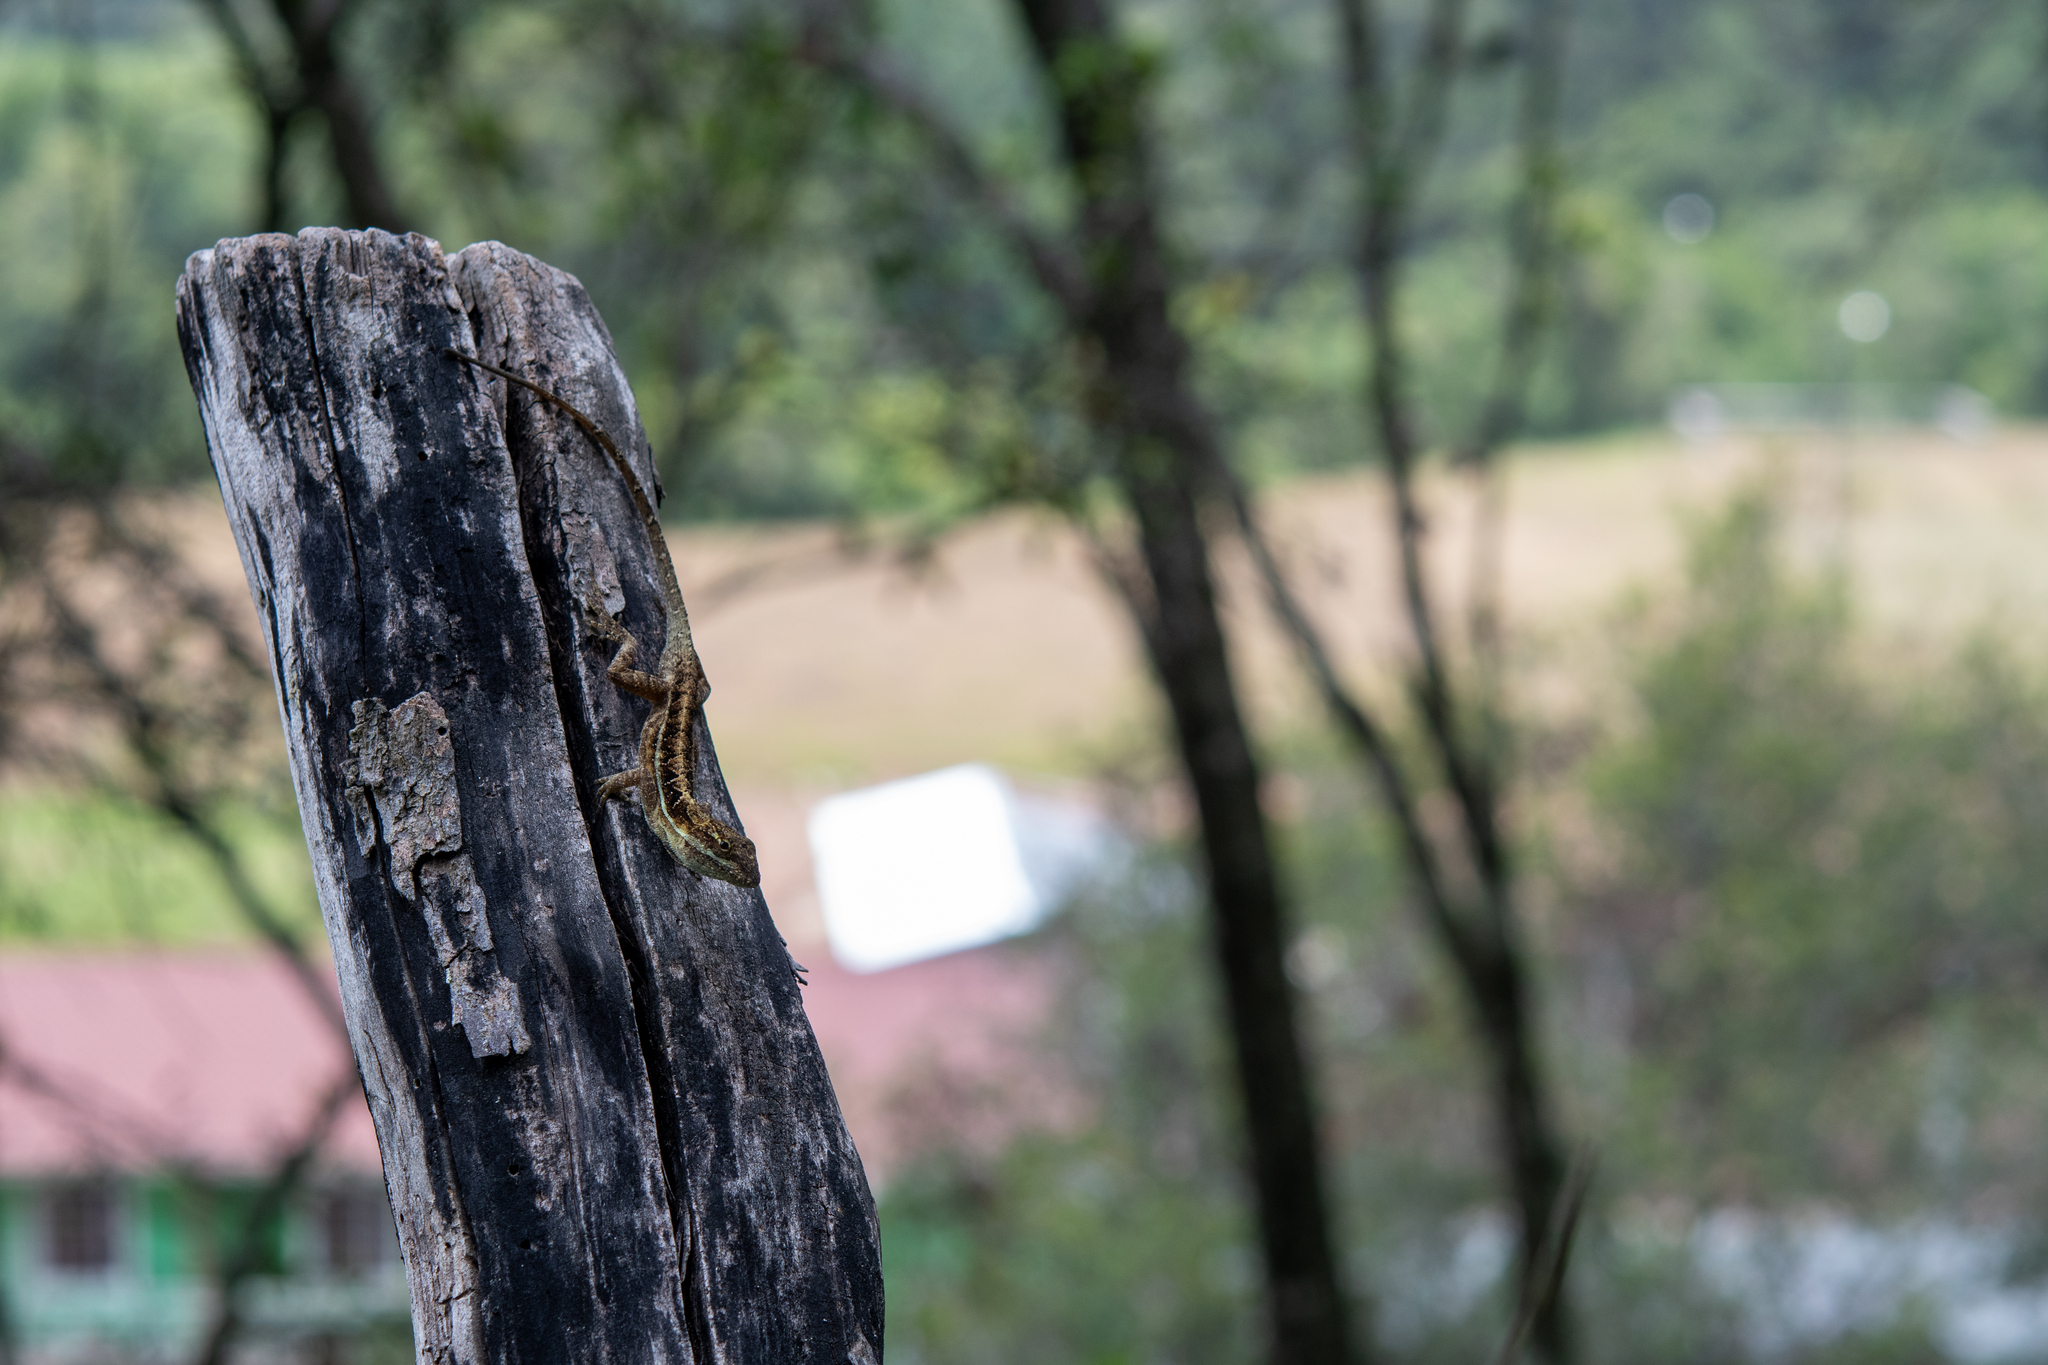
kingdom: Animalia
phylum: Chordata
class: Squamata
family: Dactyloidae
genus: Anolis
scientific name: Anolis caceresae
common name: Berta’s anole
